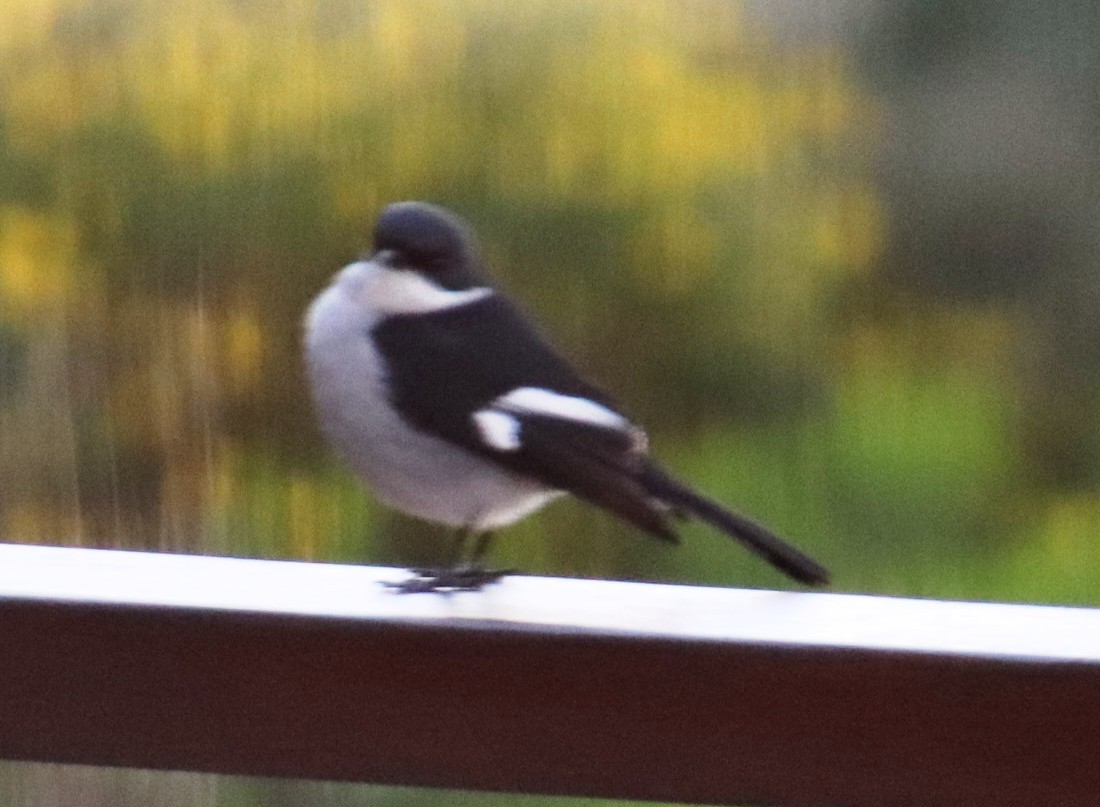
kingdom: Animalia
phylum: Chordata
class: Aves
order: Passeriformes
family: Muscicapidae
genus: Sigelus
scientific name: Sigelus silens
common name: Fiscal flycatcher
